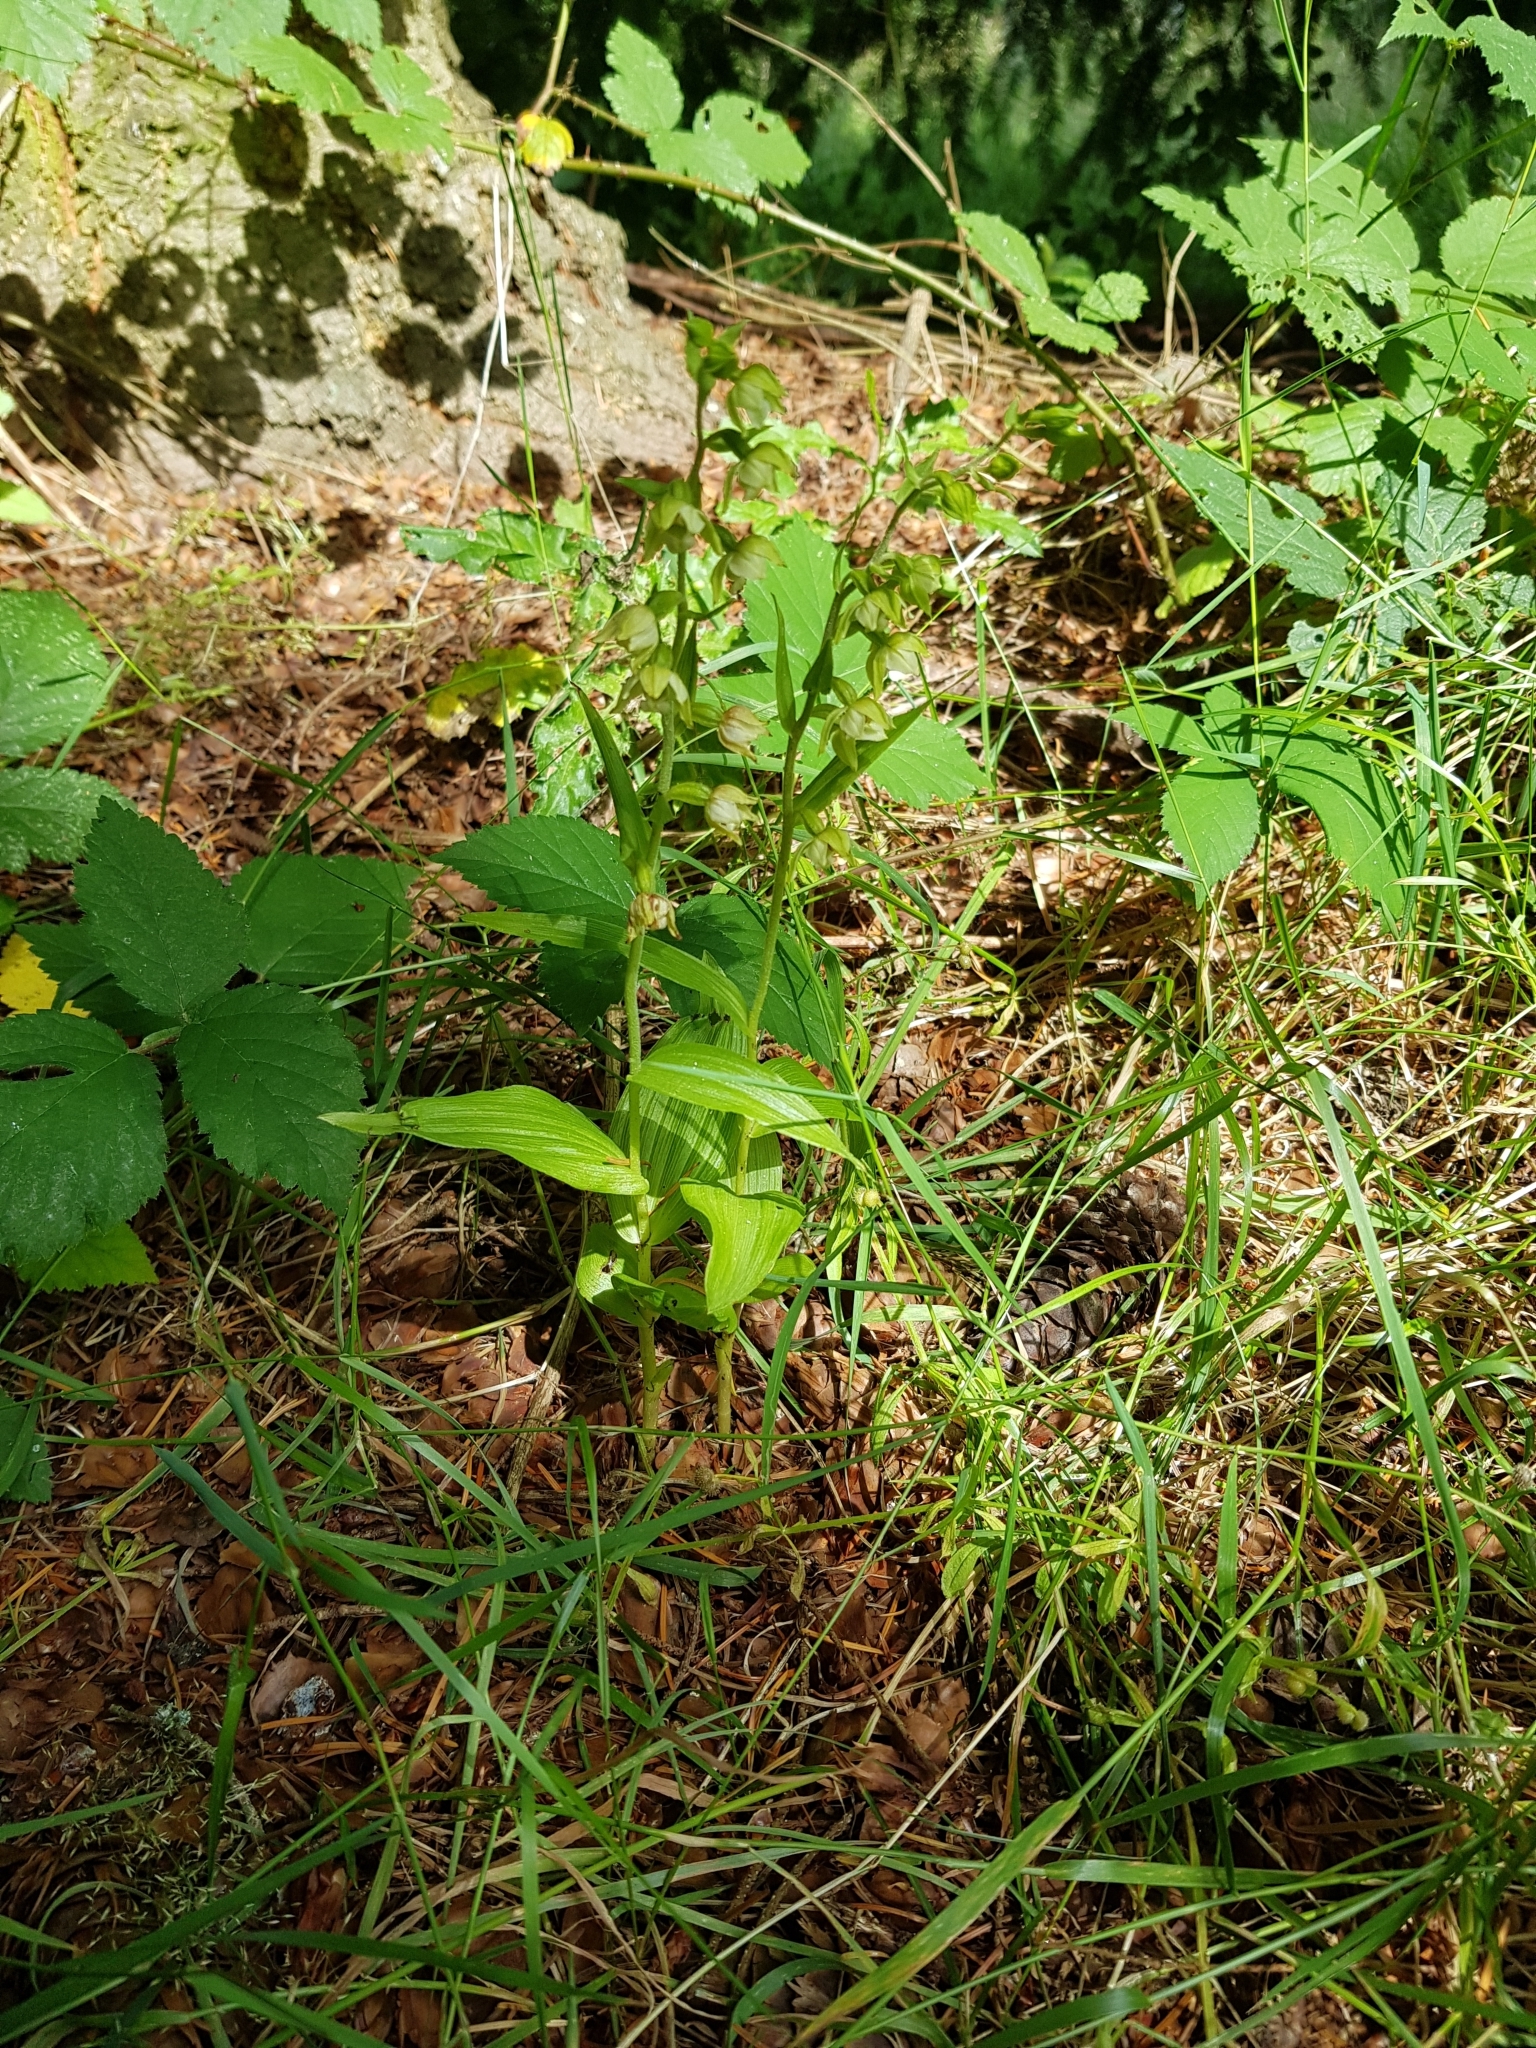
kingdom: Plantae
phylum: Tracheophyta
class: Liliopsida
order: Asparagales
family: Orchidaceae
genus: Epipactis
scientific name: Epipactis helleborine
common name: Broad-leaved helleborine
